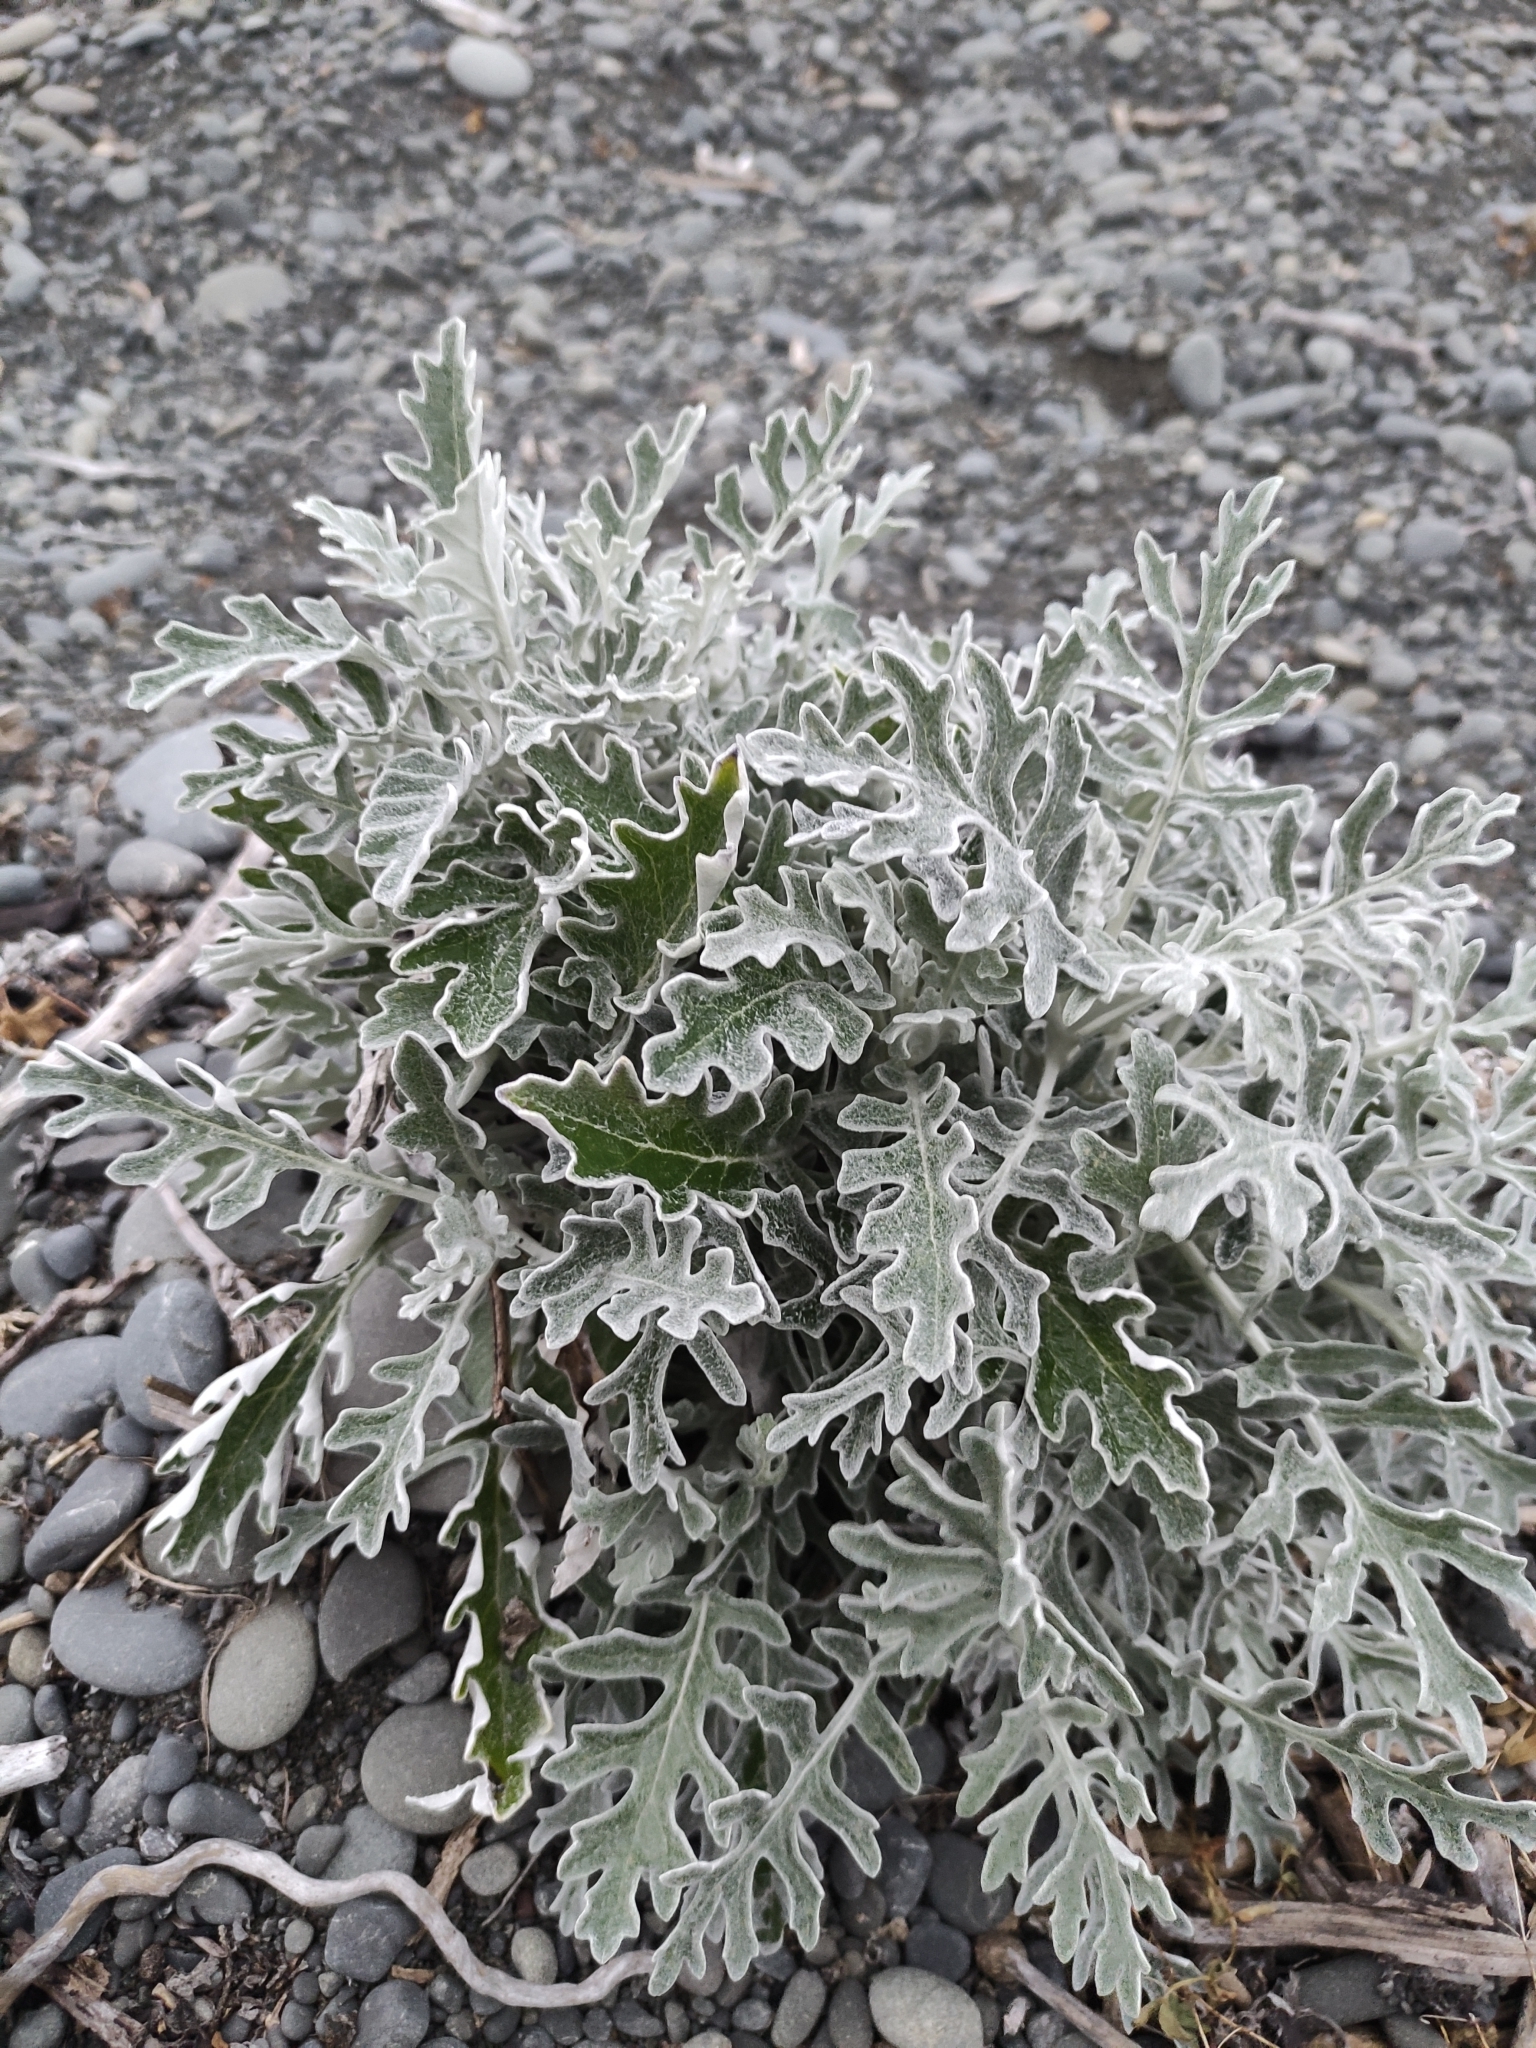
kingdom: Plantae
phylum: Tracheophyta
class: Magnoliopsida
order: Asterales
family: Asteraceae
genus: Jacobaea
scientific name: Jacobaea maritima
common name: Silver ragwort
